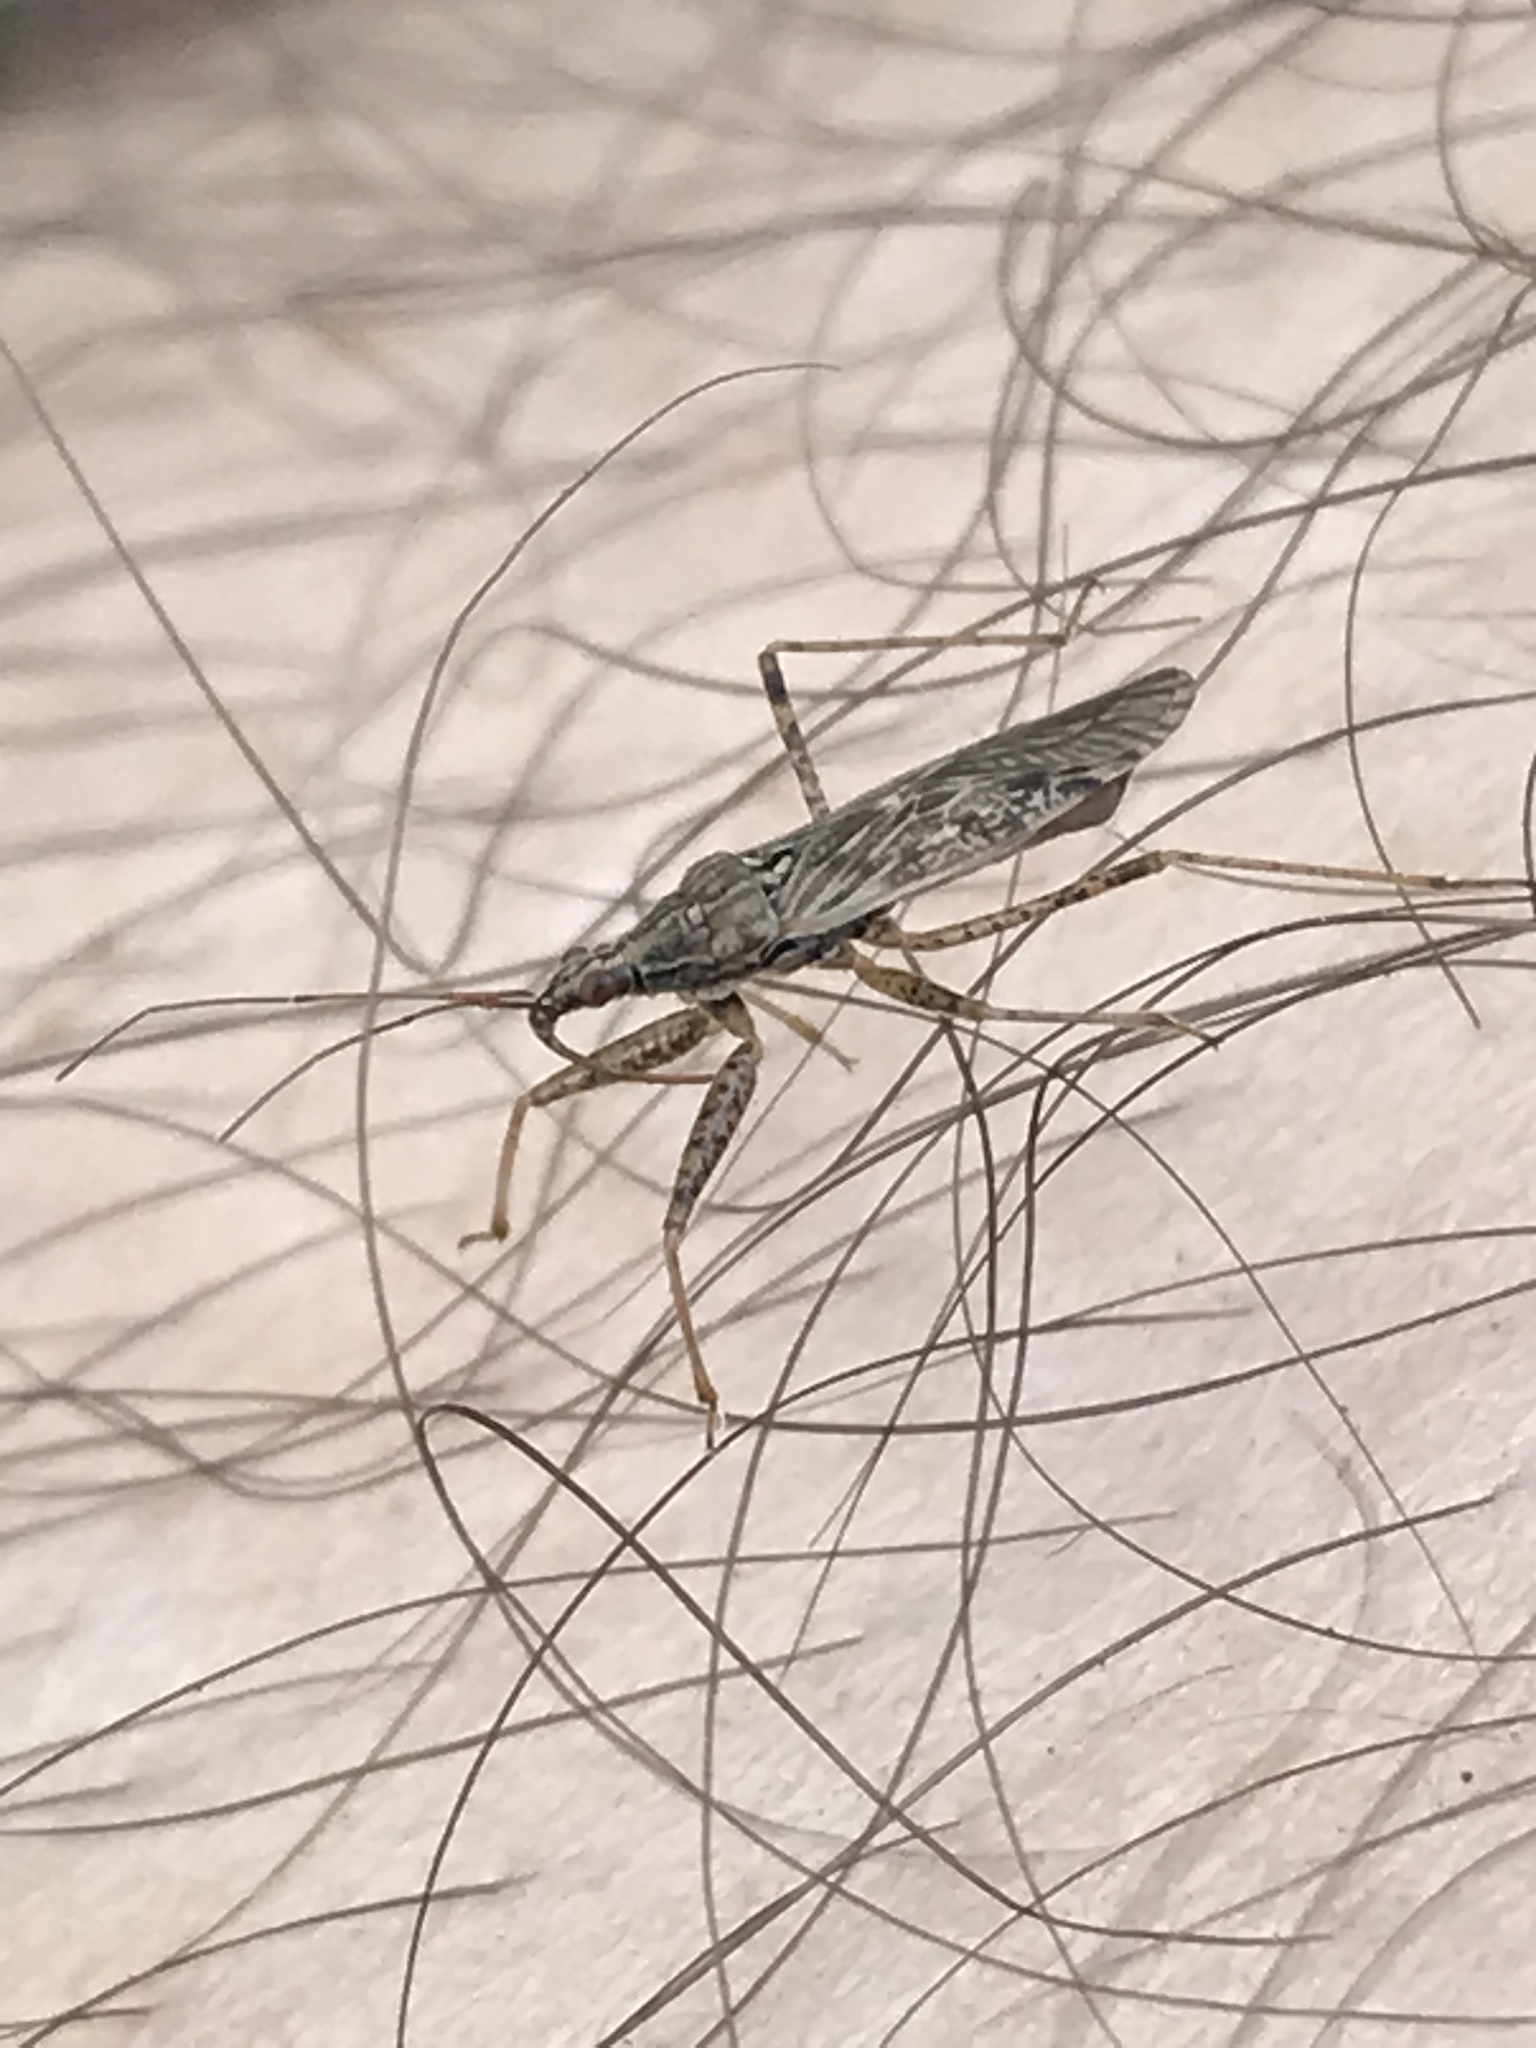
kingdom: Animalia
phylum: Arthropoda
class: Insecta
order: Hemiptera
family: Nabidae
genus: Nabis
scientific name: Nabis roseipennis
